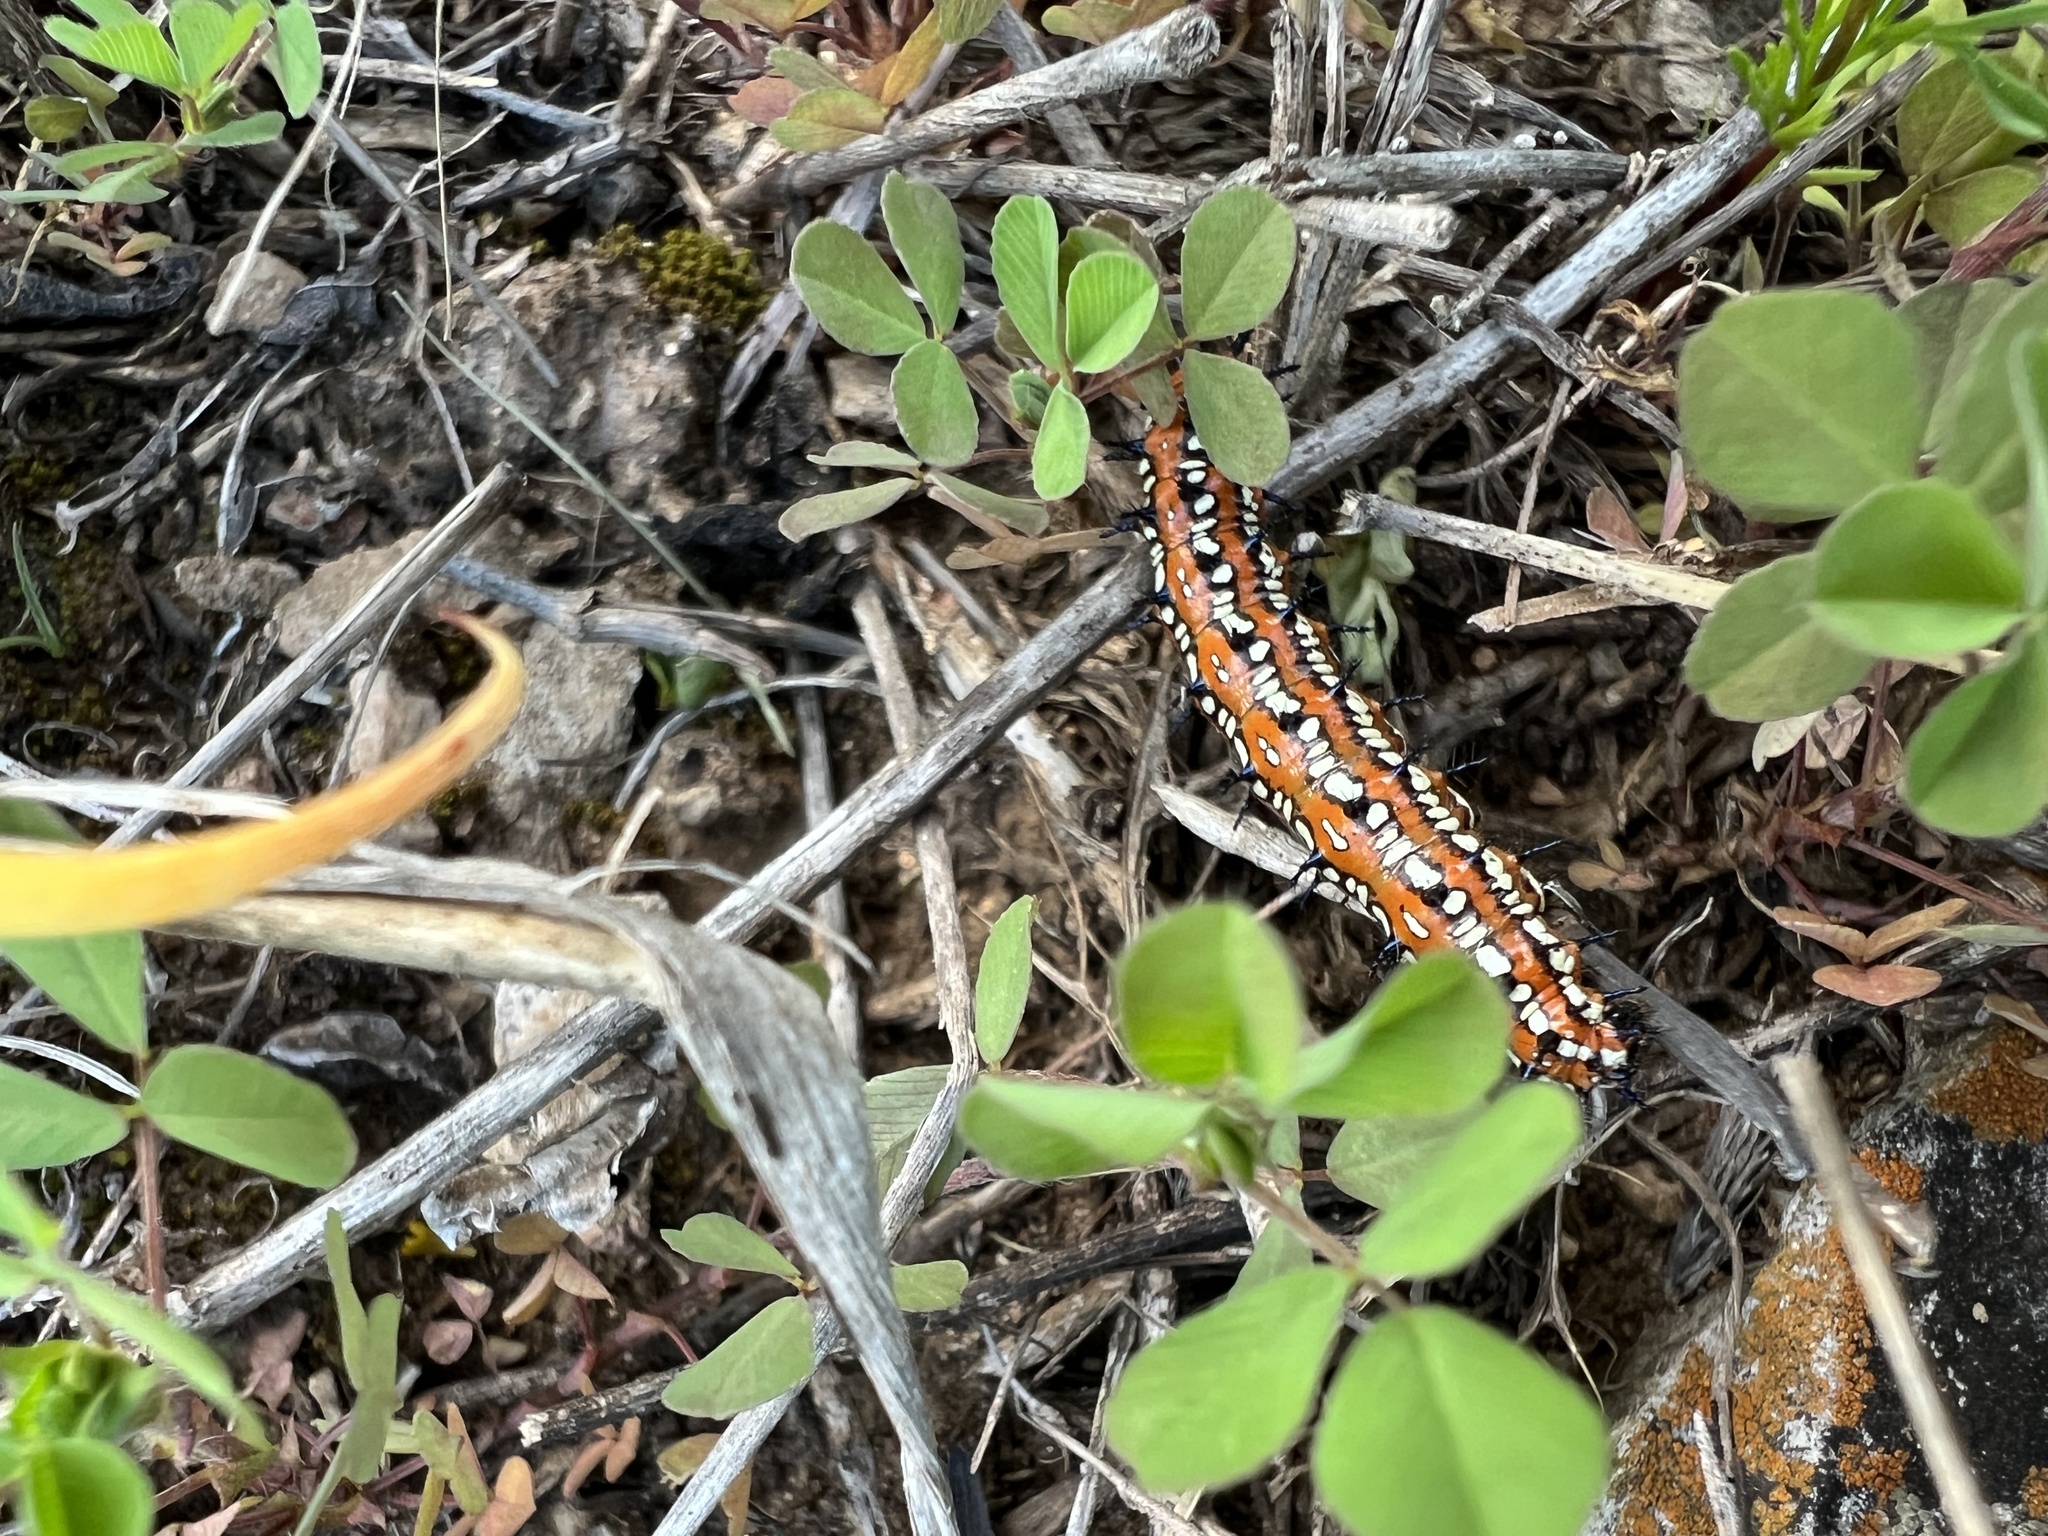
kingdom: Animalia
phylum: Arthropoda
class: Insecta
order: Lepidoptera
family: Nymphalidae
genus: Euptoieta
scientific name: Euptoieta claudia
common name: Variegated fritillary
